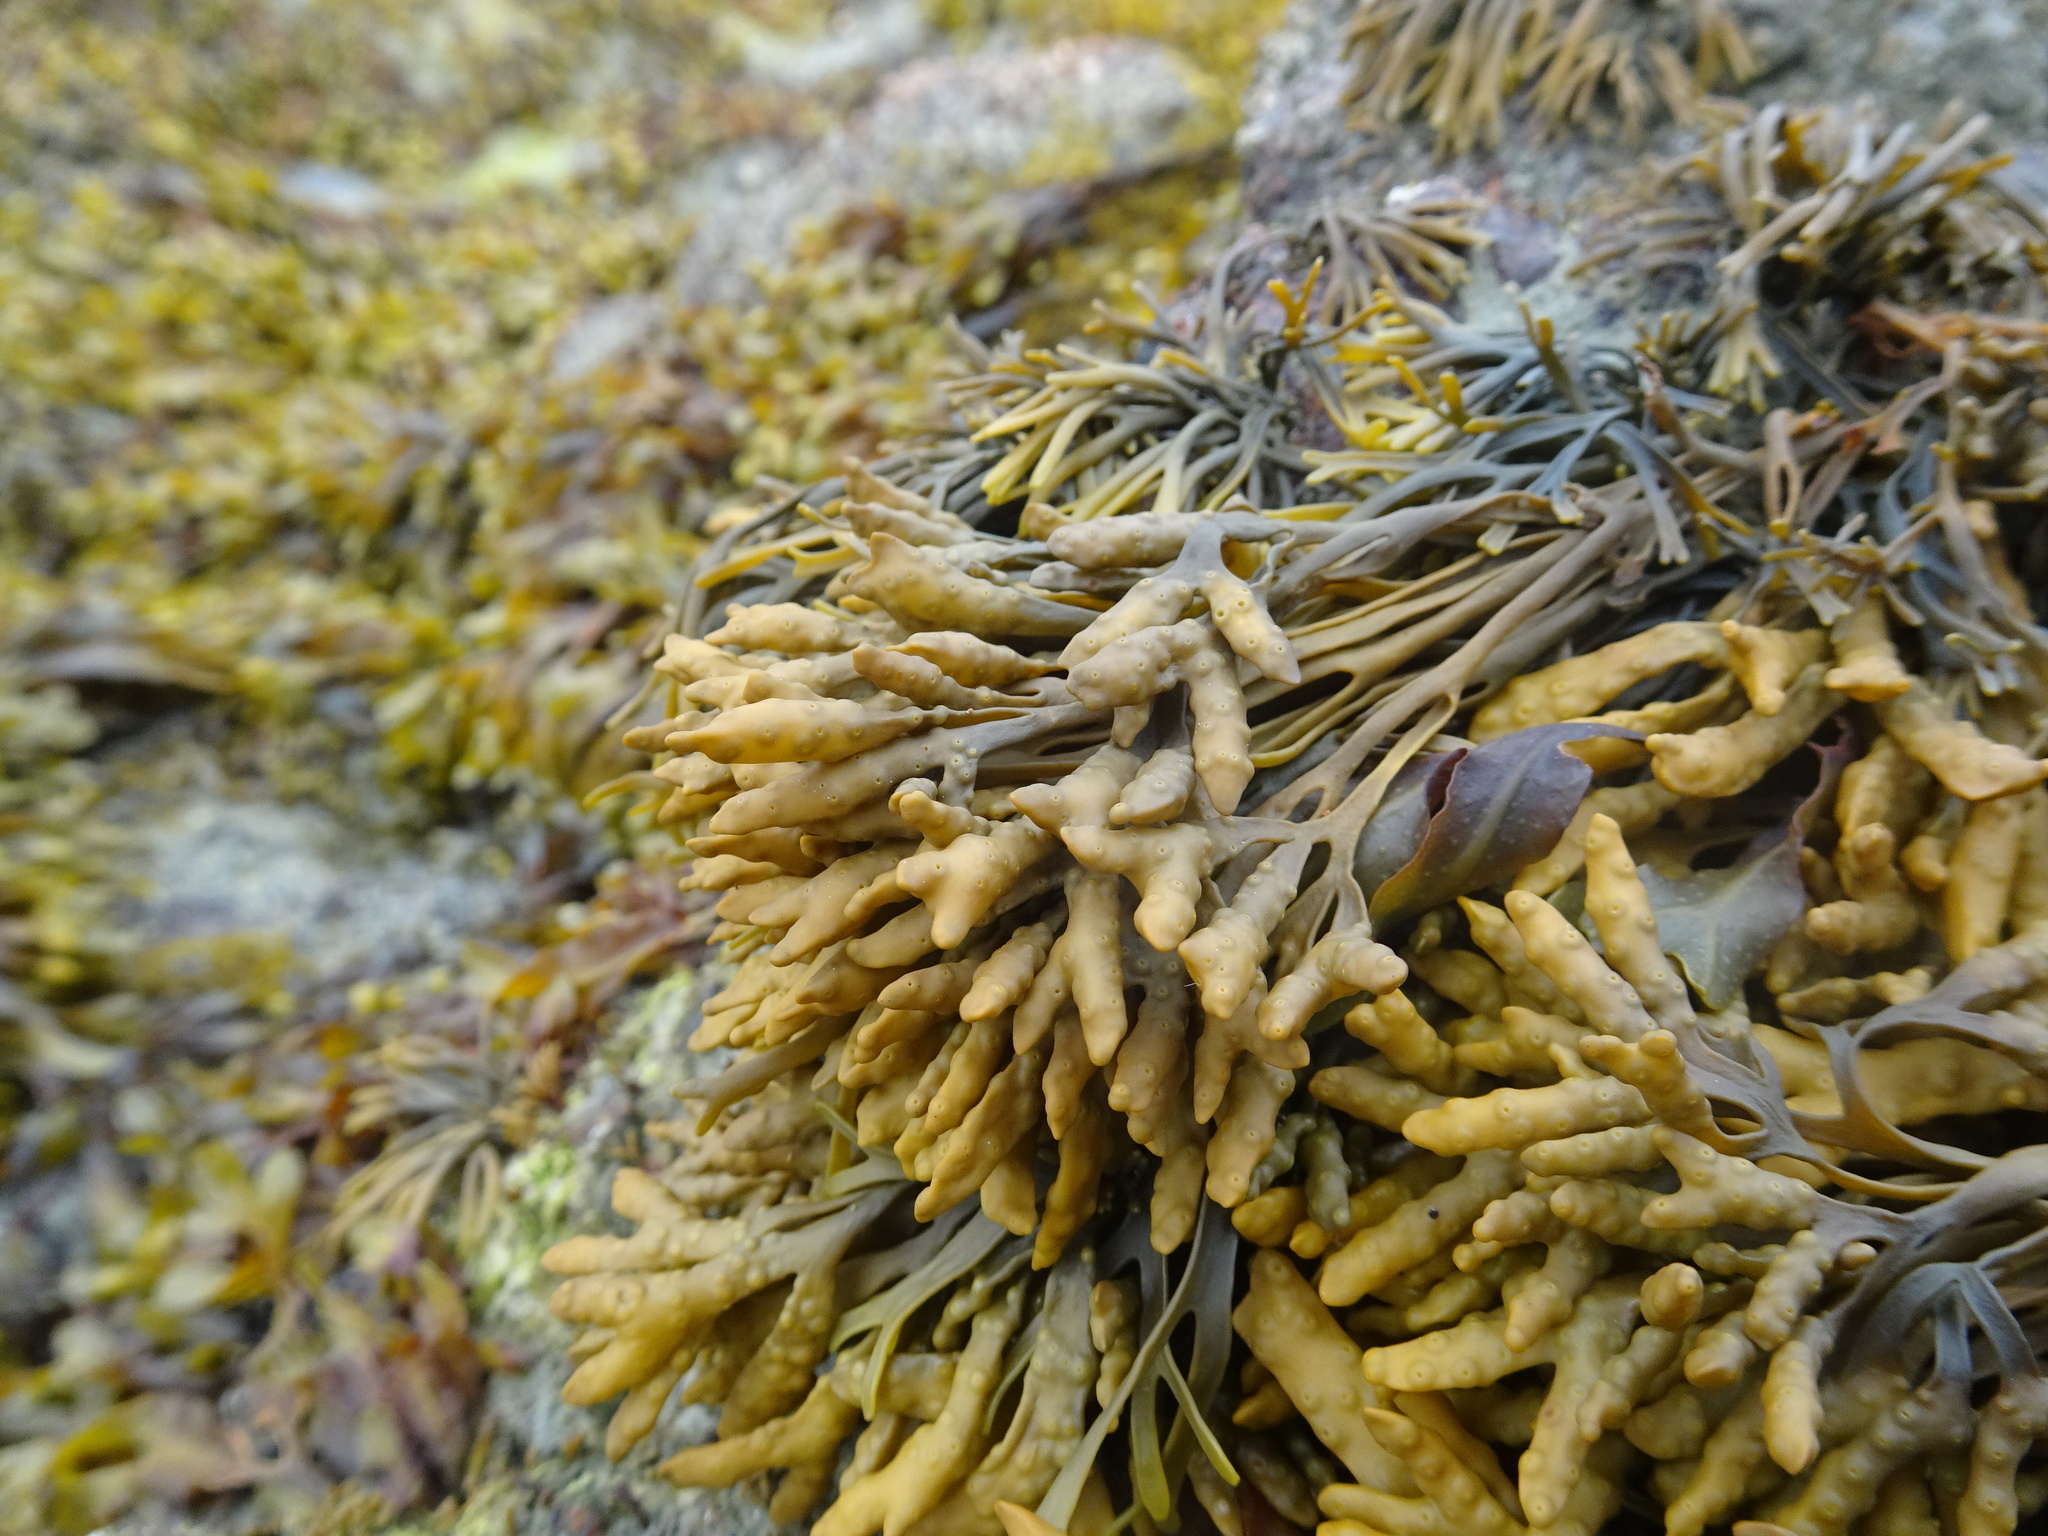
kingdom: Chromista
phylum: Ochrophyta
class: Phaeophyceae
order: Fucales
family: Fucaceae
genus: Pelvetia
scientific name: Pelvetia canaliculata
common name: Channelled wrack
